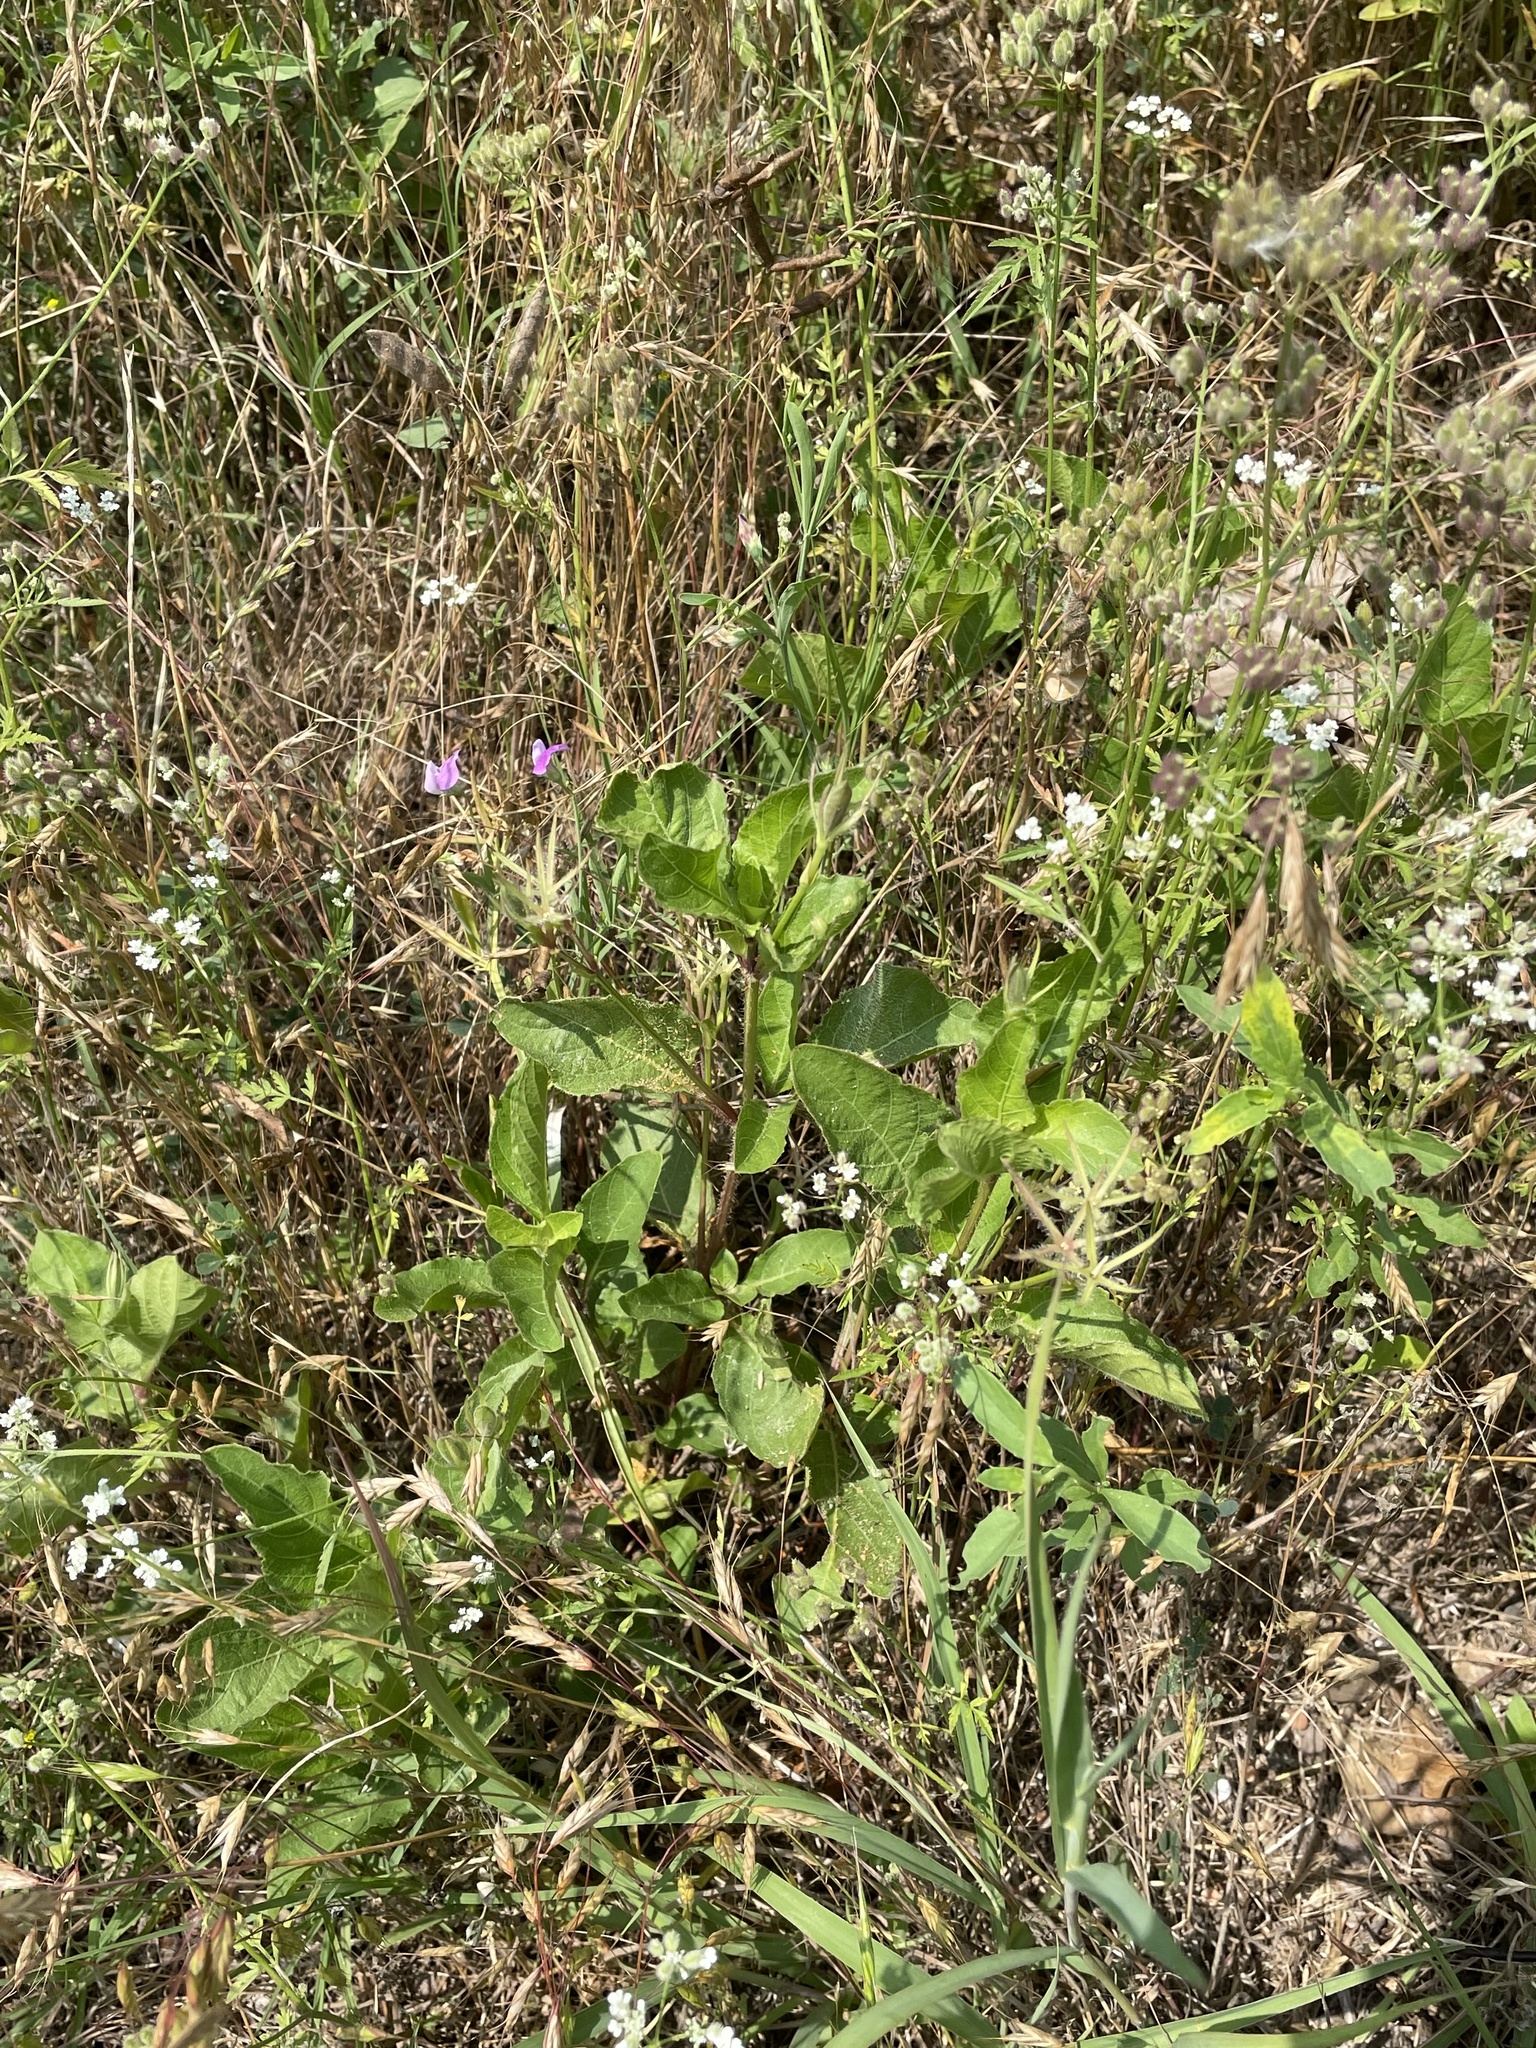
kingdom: Plantae
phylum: Tracheophyta
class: Magnoliopsida
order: Lamiales
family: Acanthaceae
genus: Ruellia
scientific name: Ruellia ciliatiflora
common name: Hairyflower wild petunia
